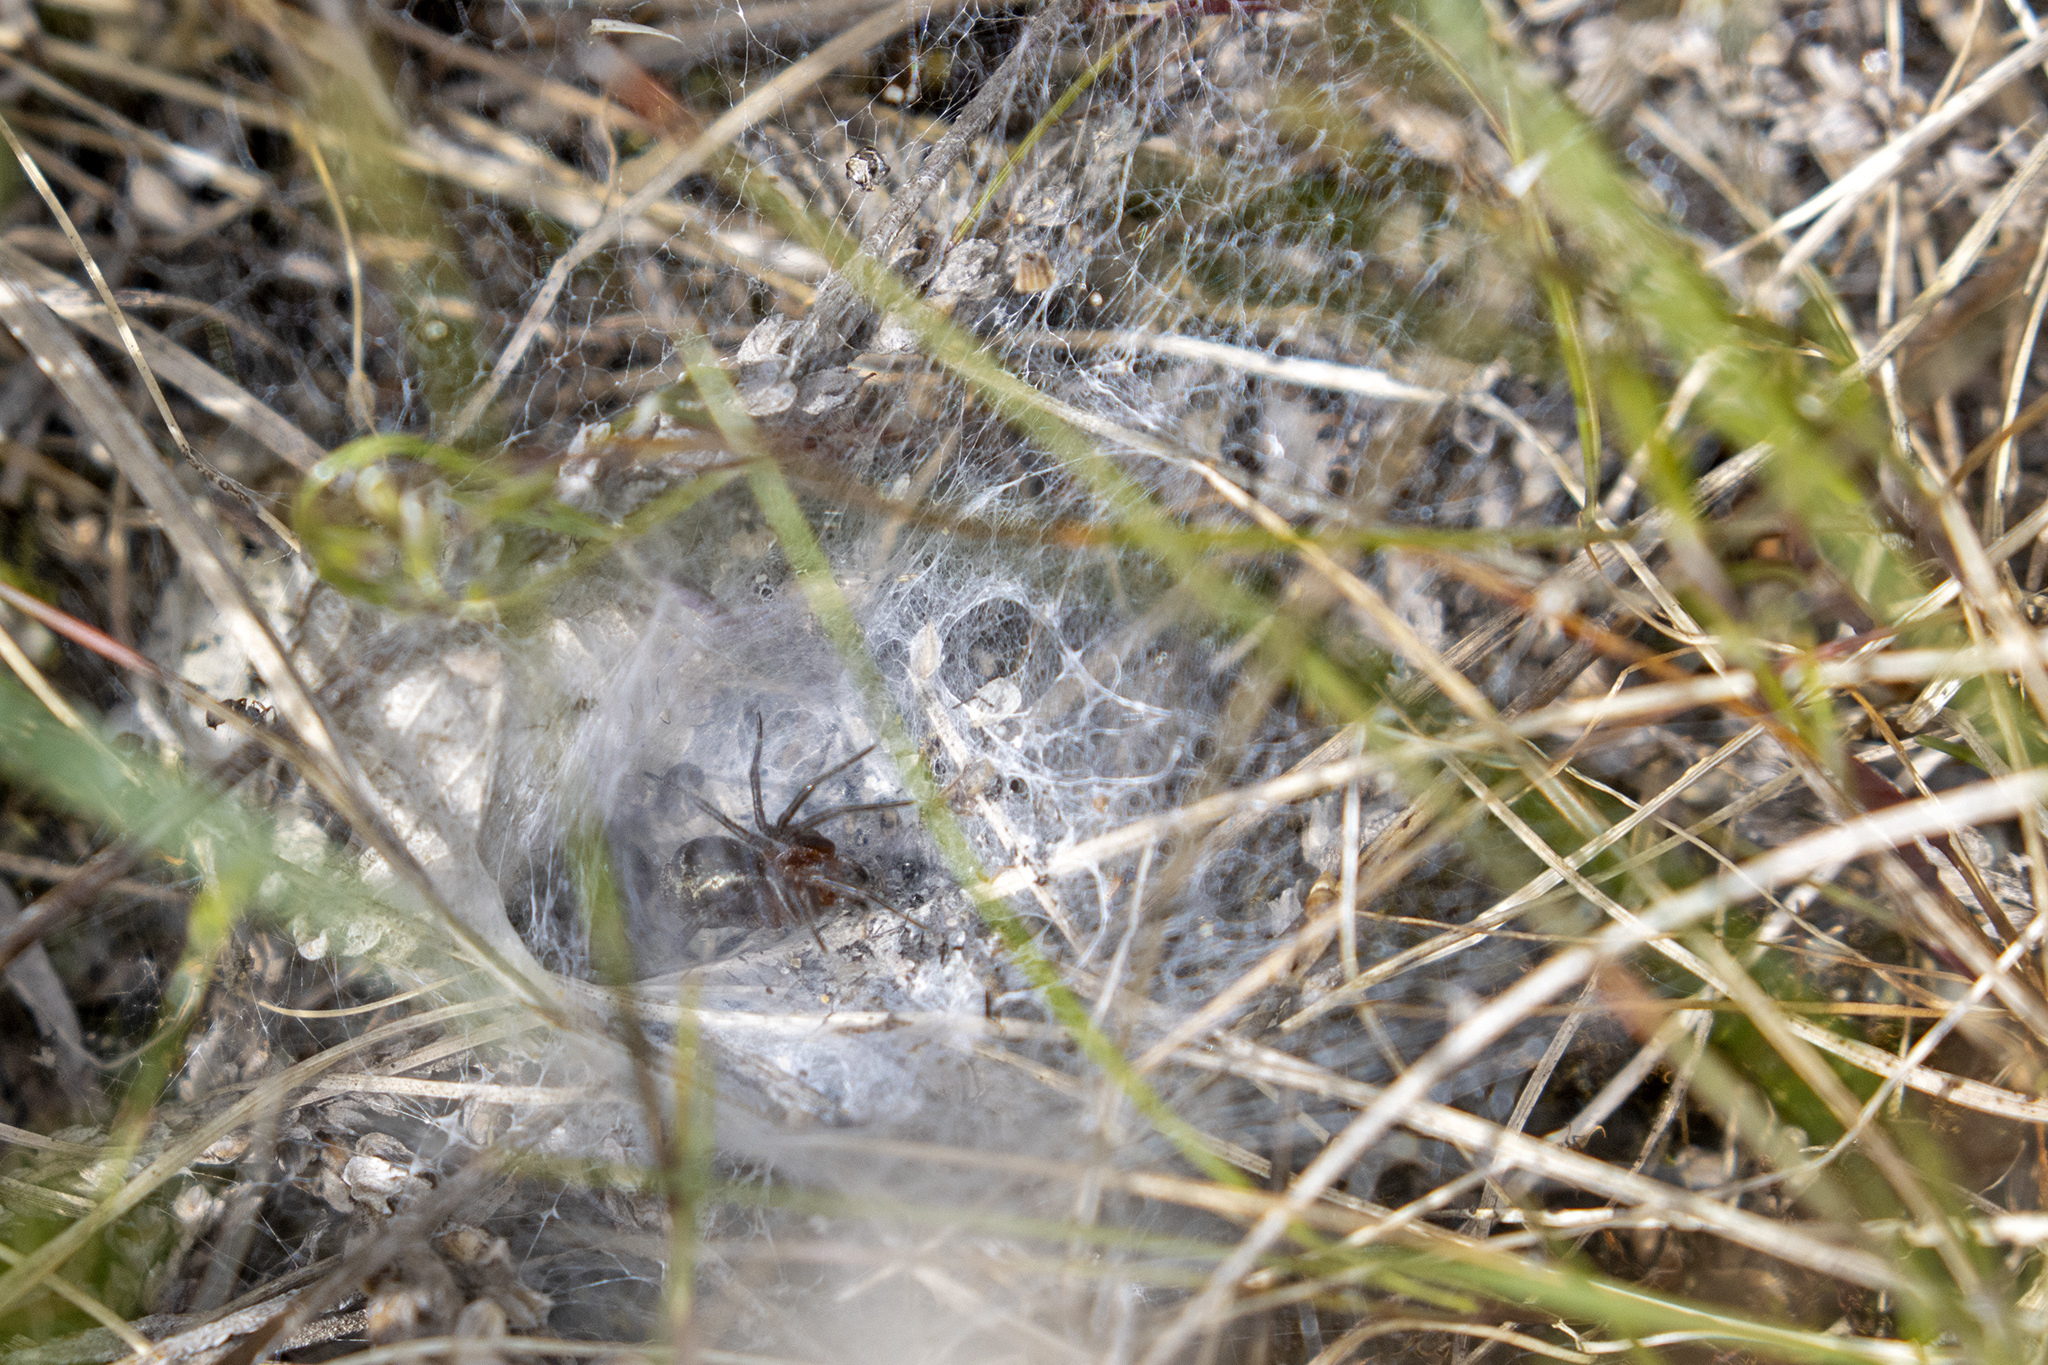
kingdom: Animalia
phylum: Arthropoda
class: Arachnida
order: Araneae
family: Agelenidae
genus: Agelena
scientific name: Agelena labyrinthica
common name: Labyrinth spider
